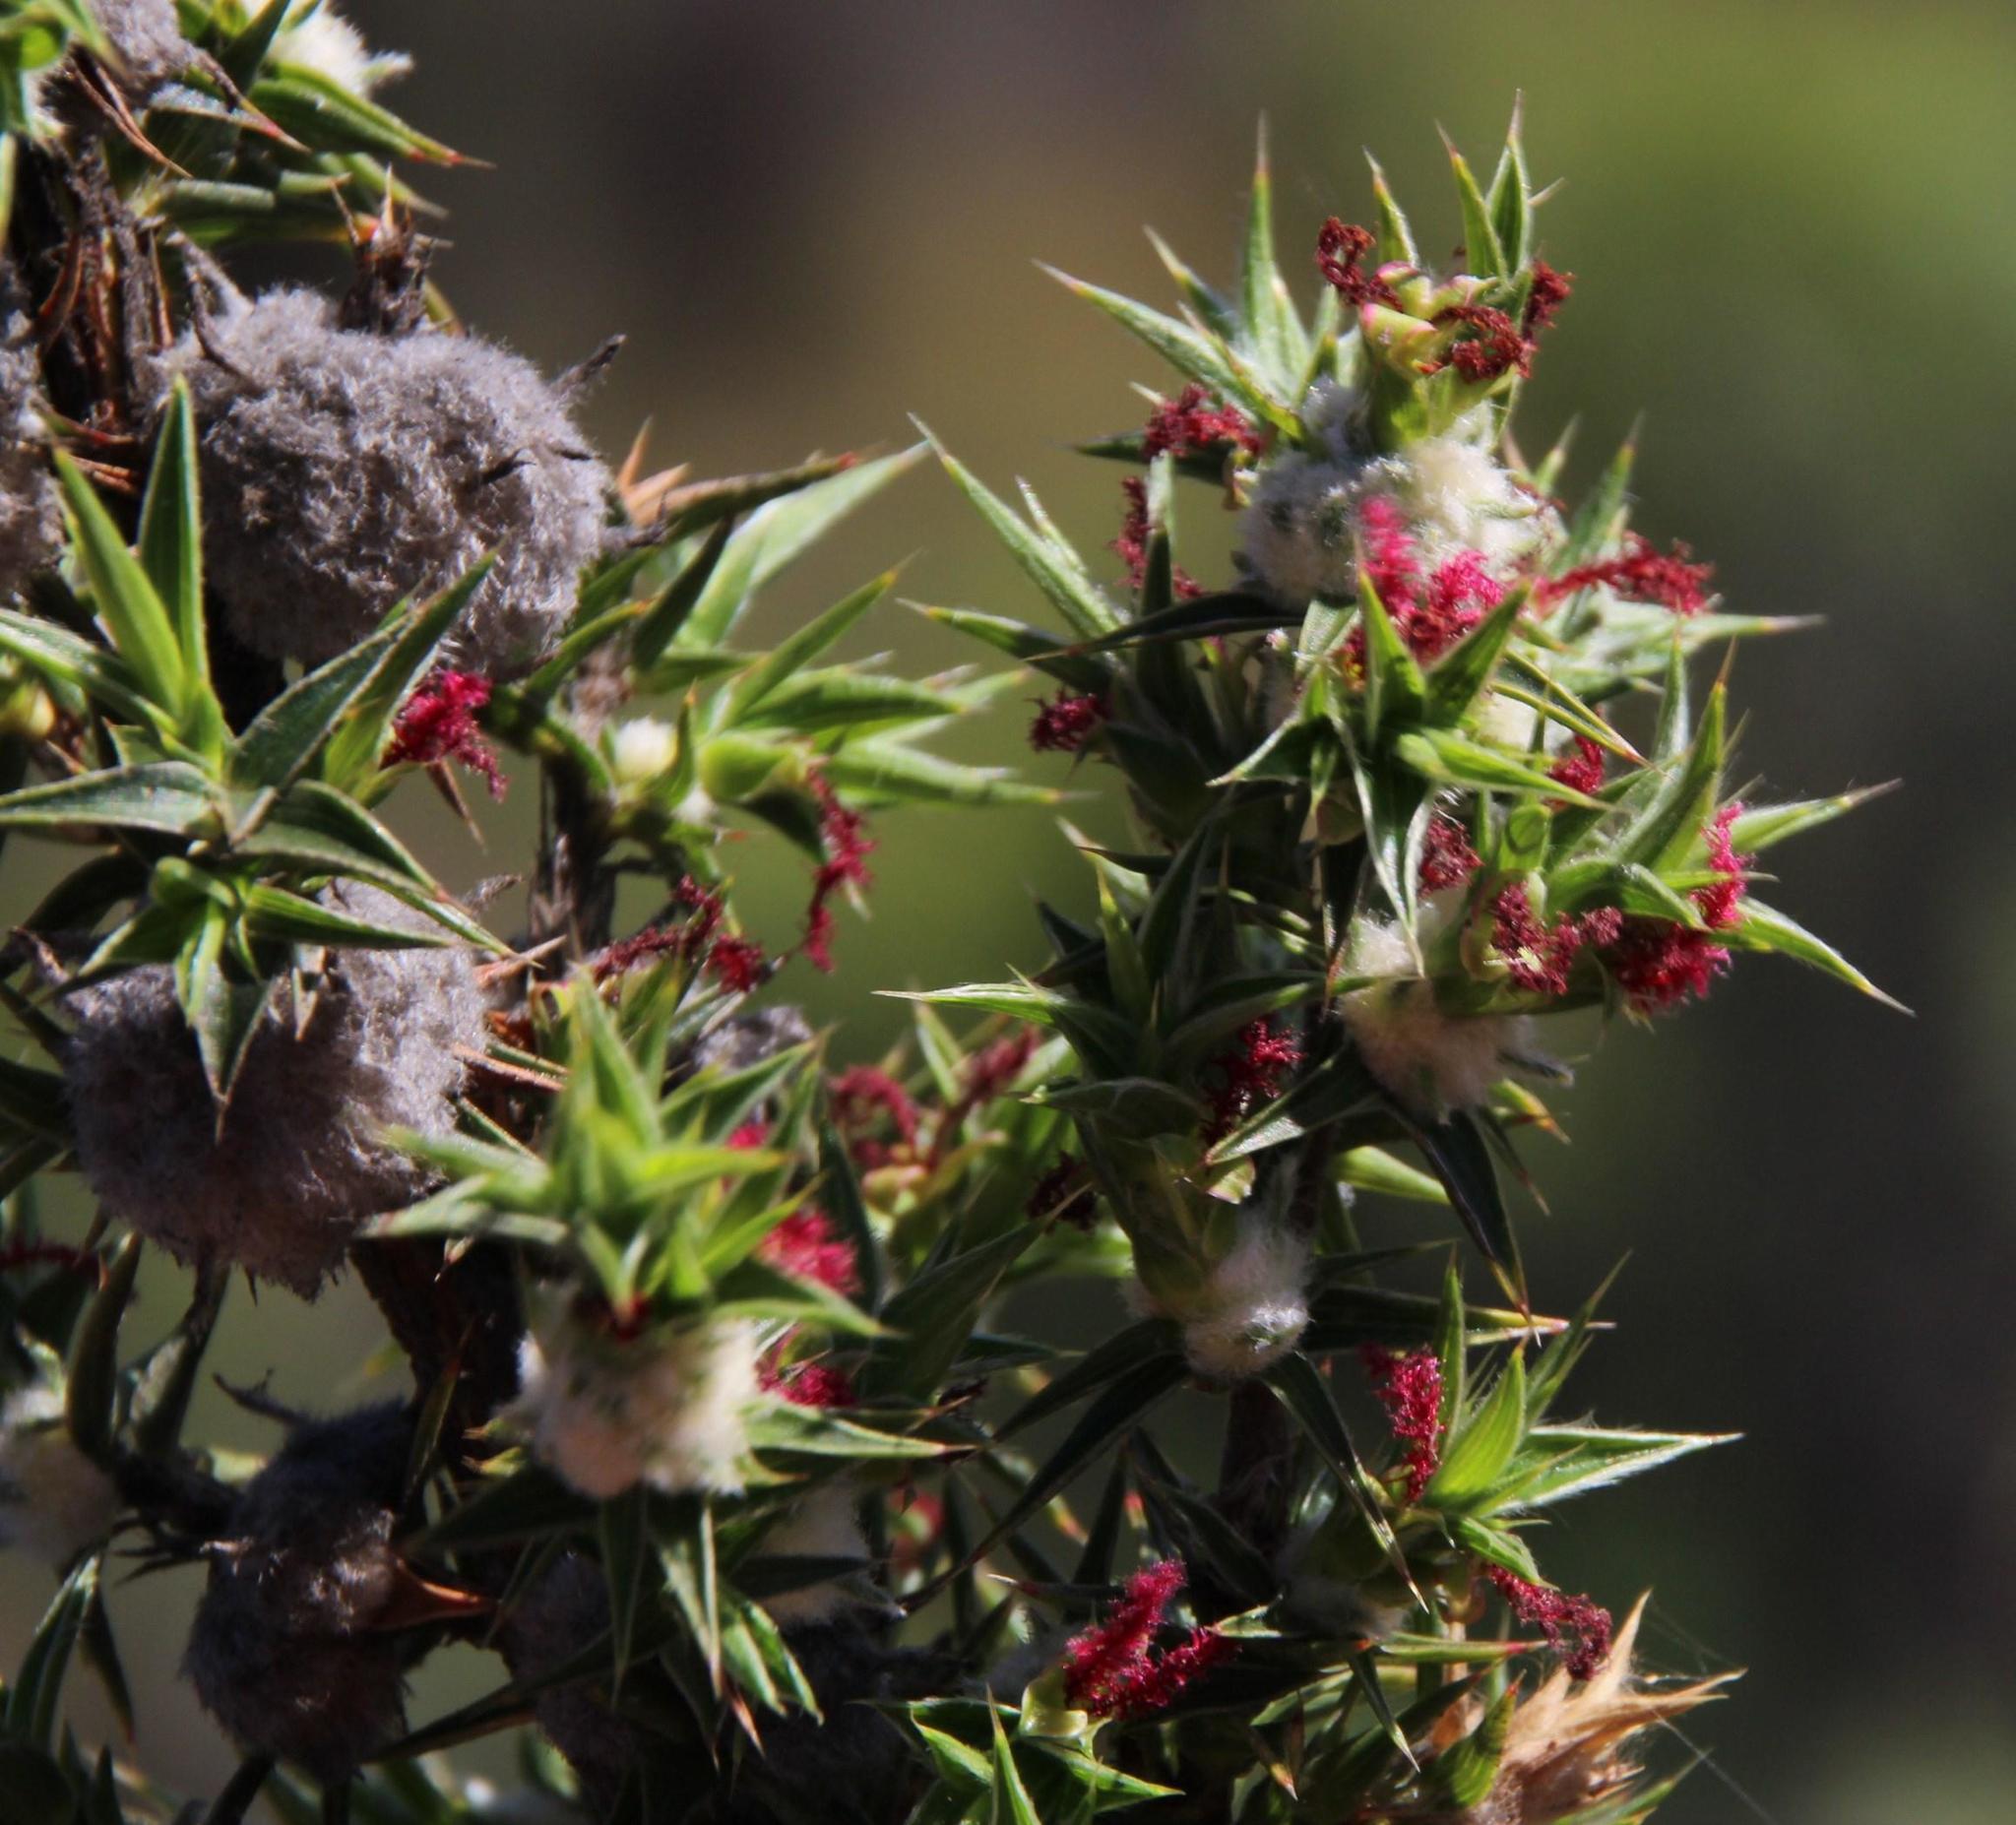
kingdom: Plantae
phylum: Tracheophyta
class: Magnoliopsida
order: Rosales
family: Rosaceae
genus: Cliffortia
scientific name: Cliffortia ruscifolia
